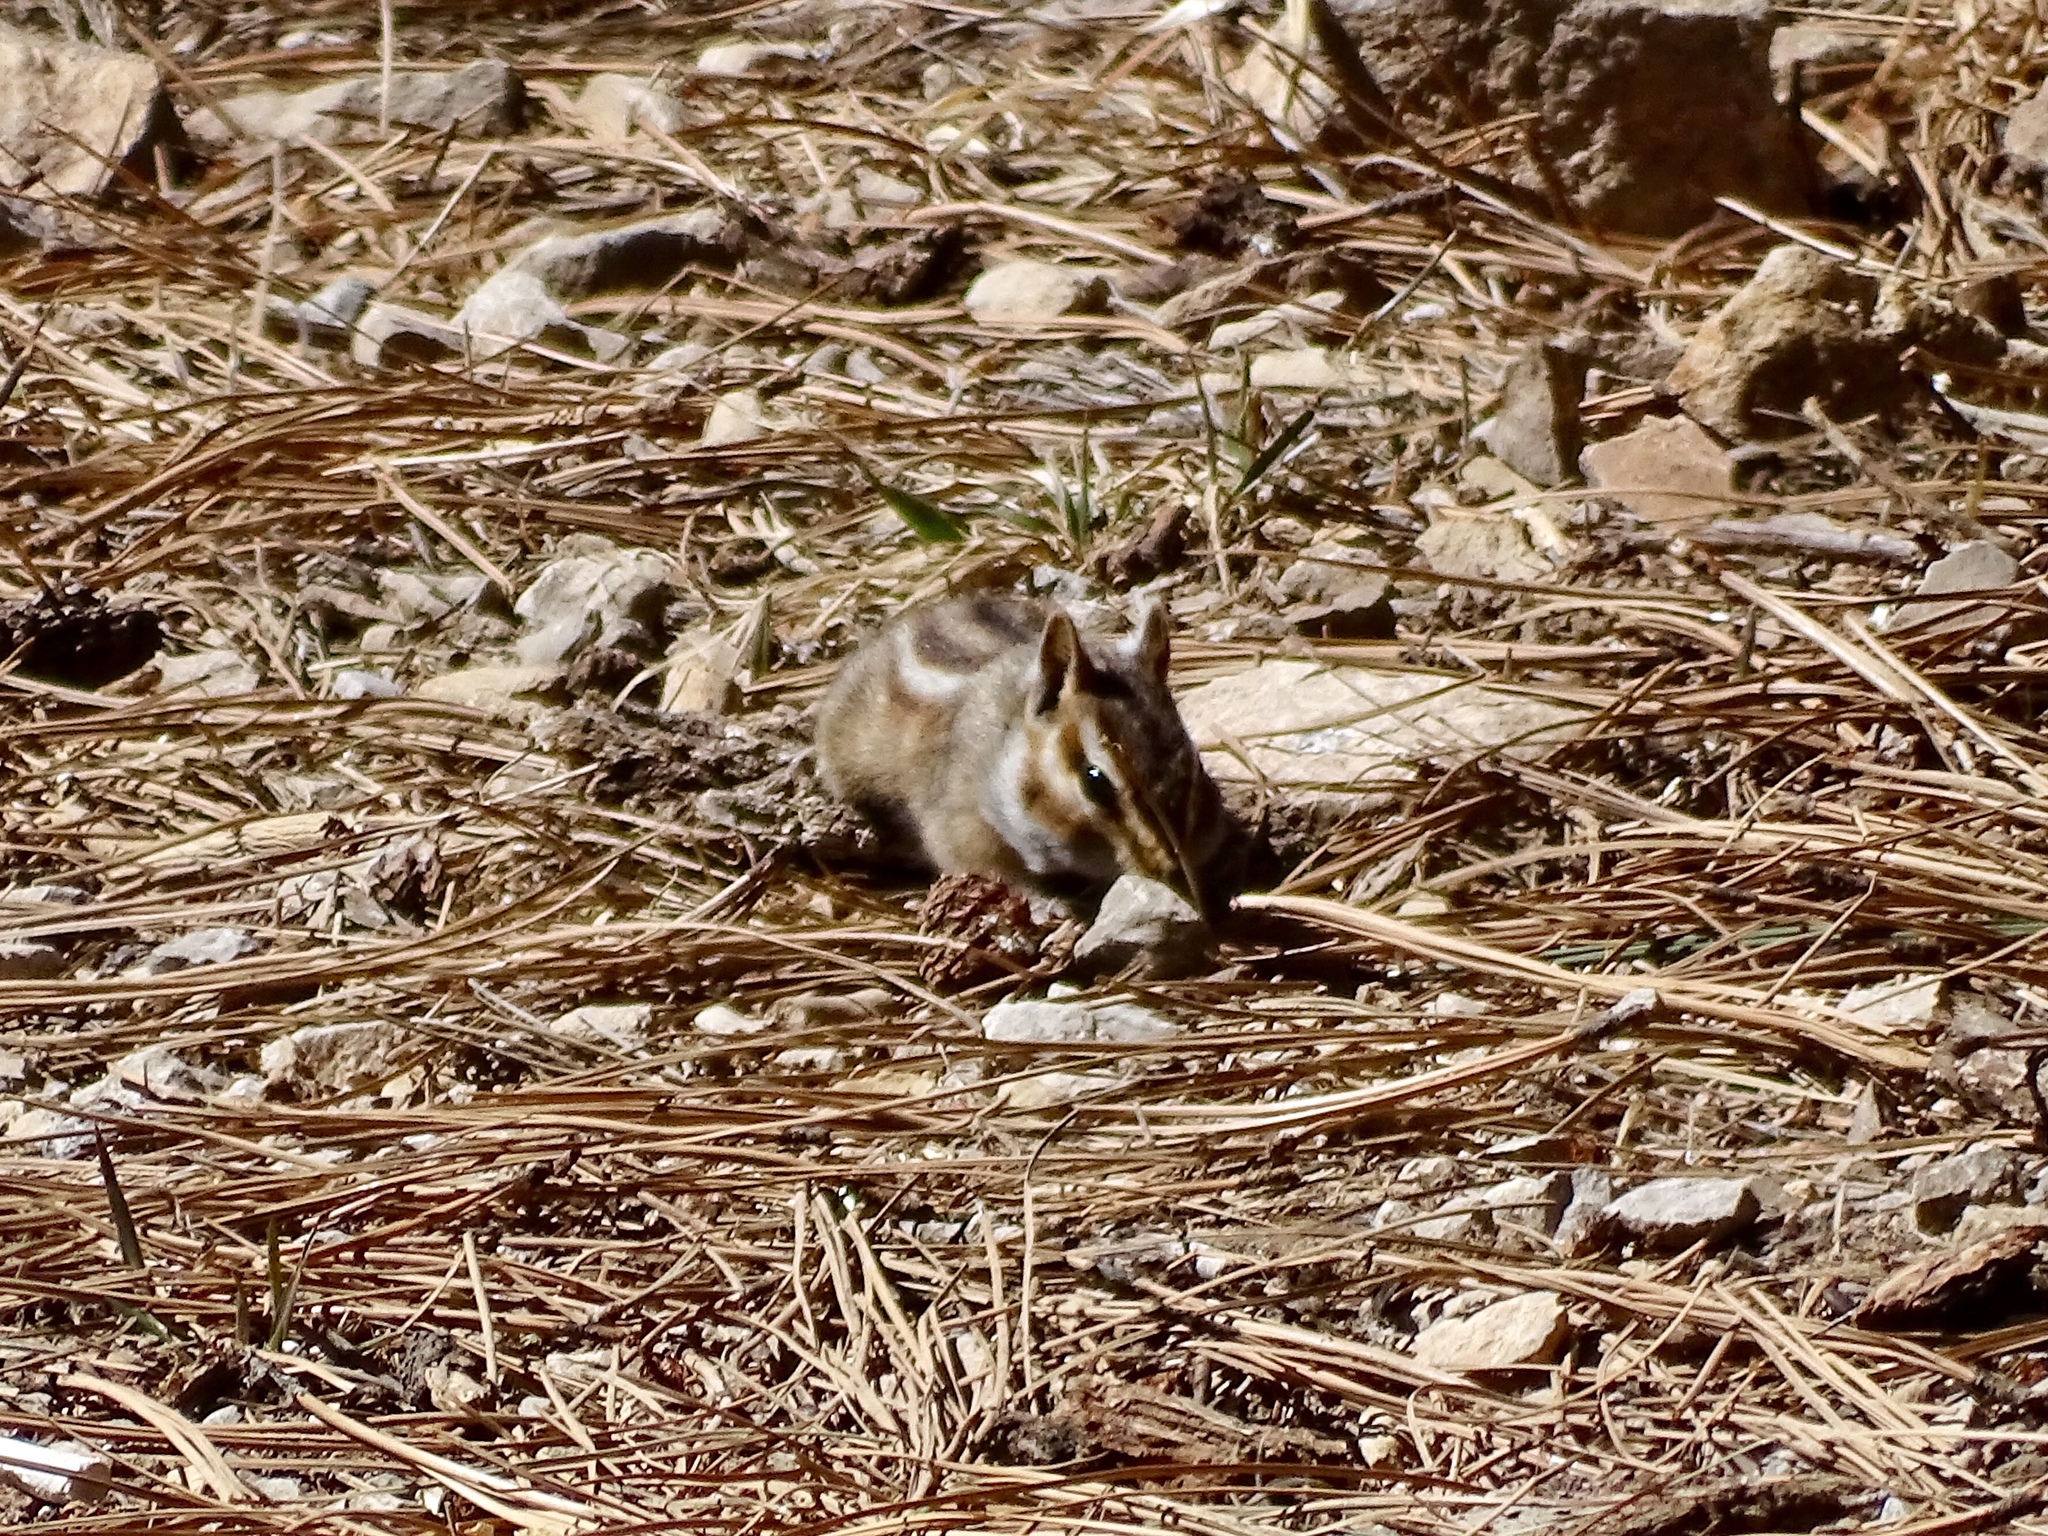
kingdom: Animalia
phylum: Chordata
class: Mammalia
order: Rodentia
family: Sciuridae
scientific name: Sciuridae
